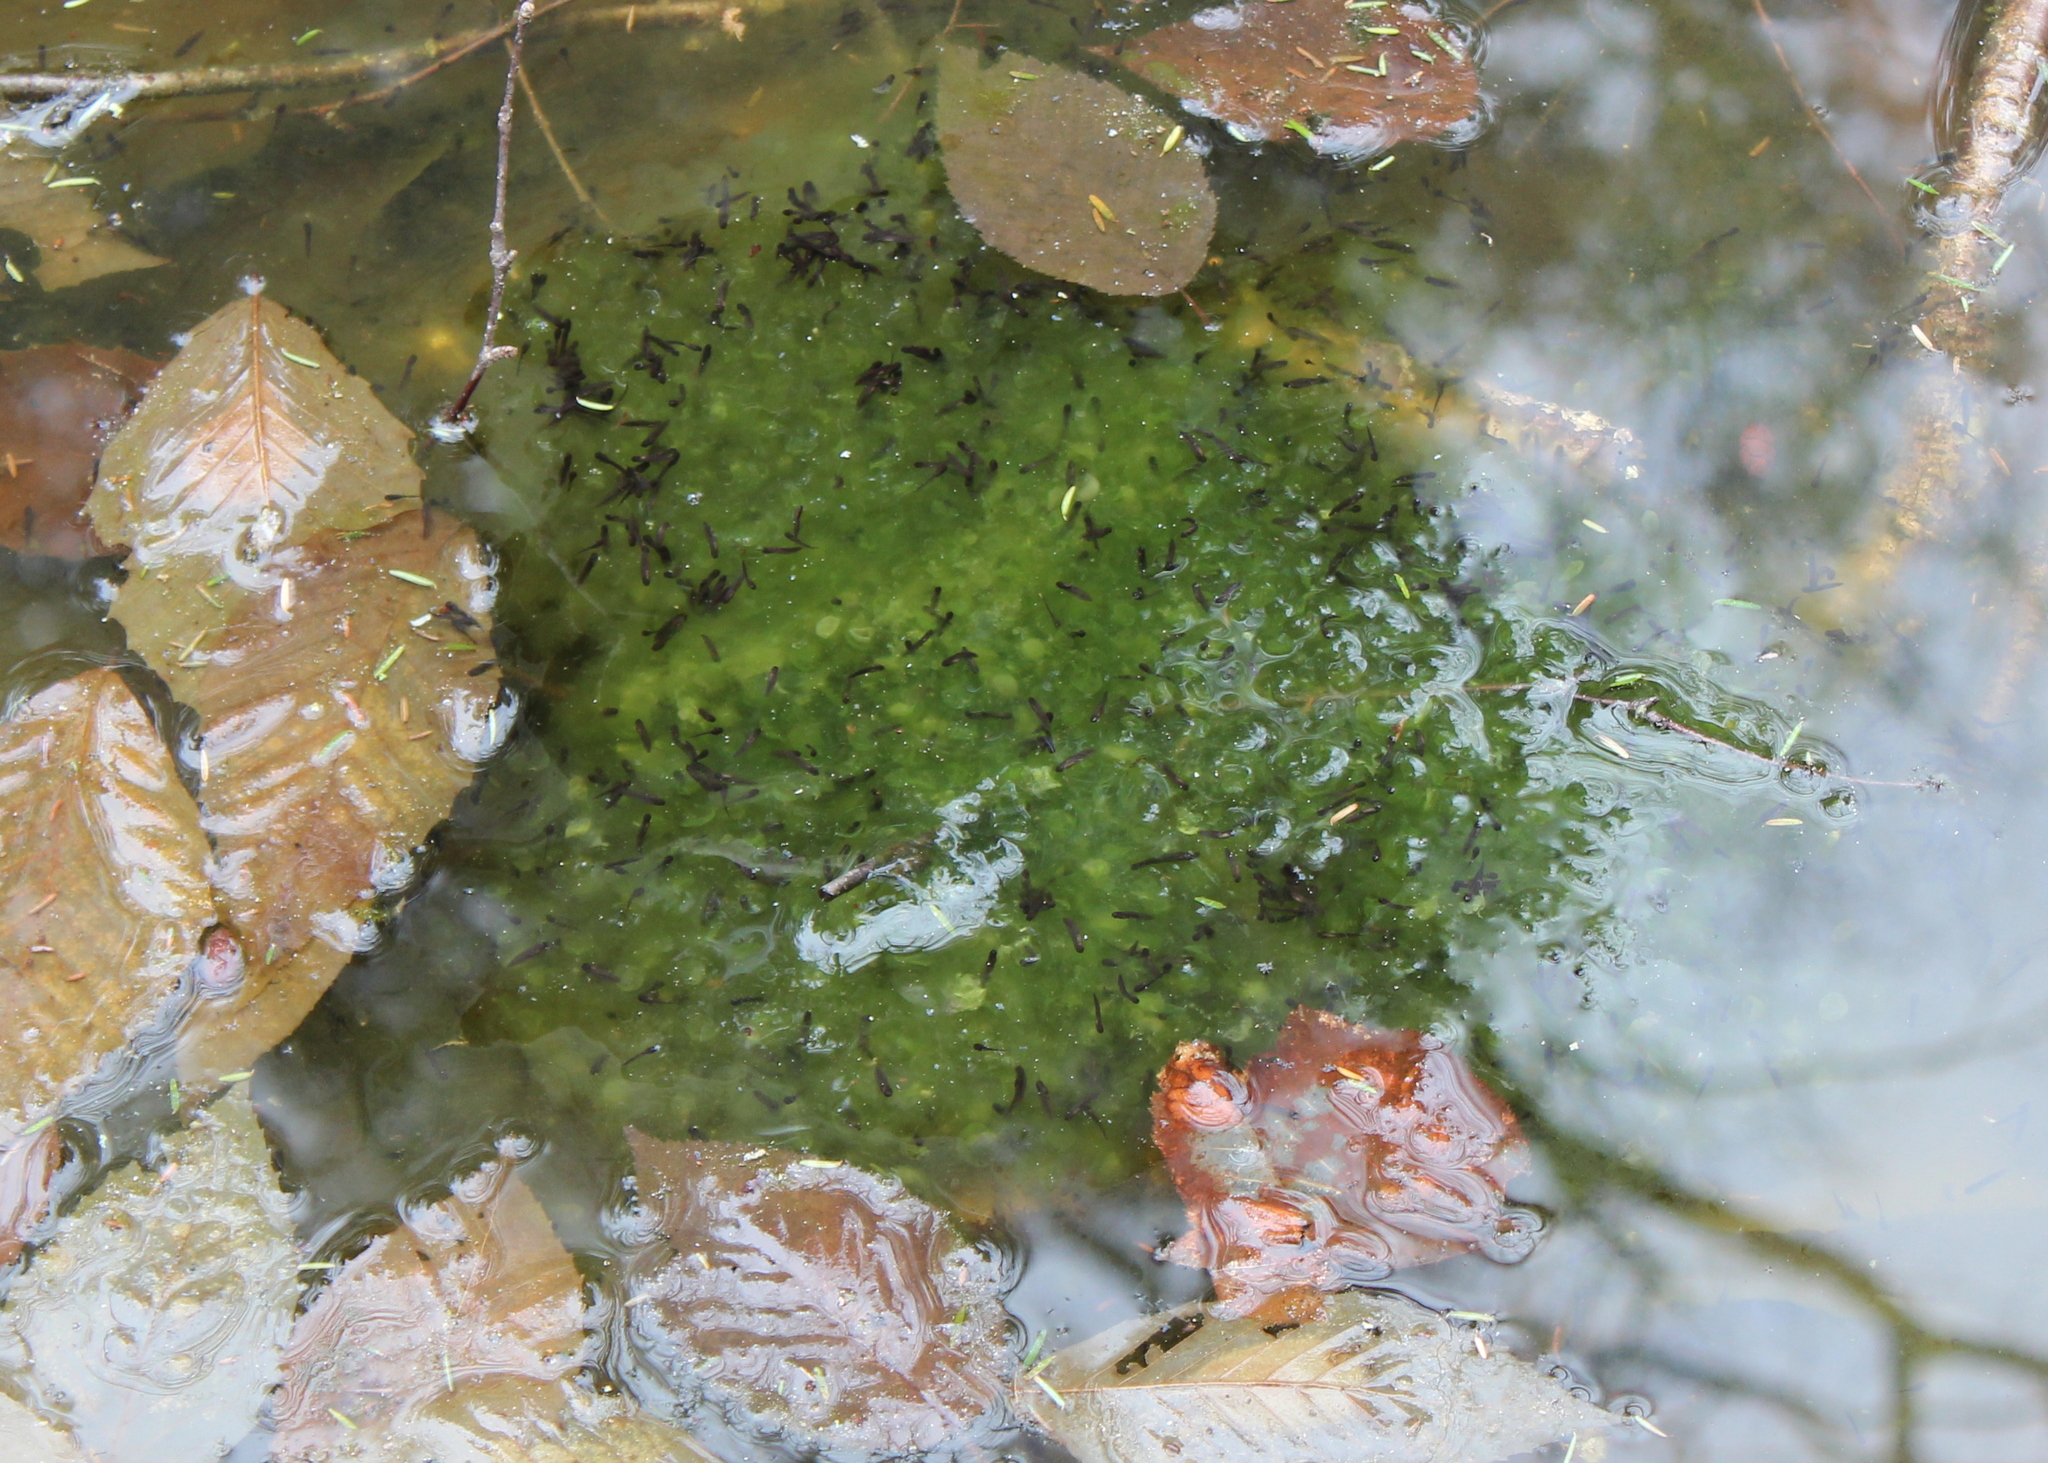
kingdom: Animalia
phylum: Chordata
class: Amphibia
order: Anura
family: Ranidae
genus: Lithobates
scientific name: Lithobates sylvaticus
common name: Wood frog
